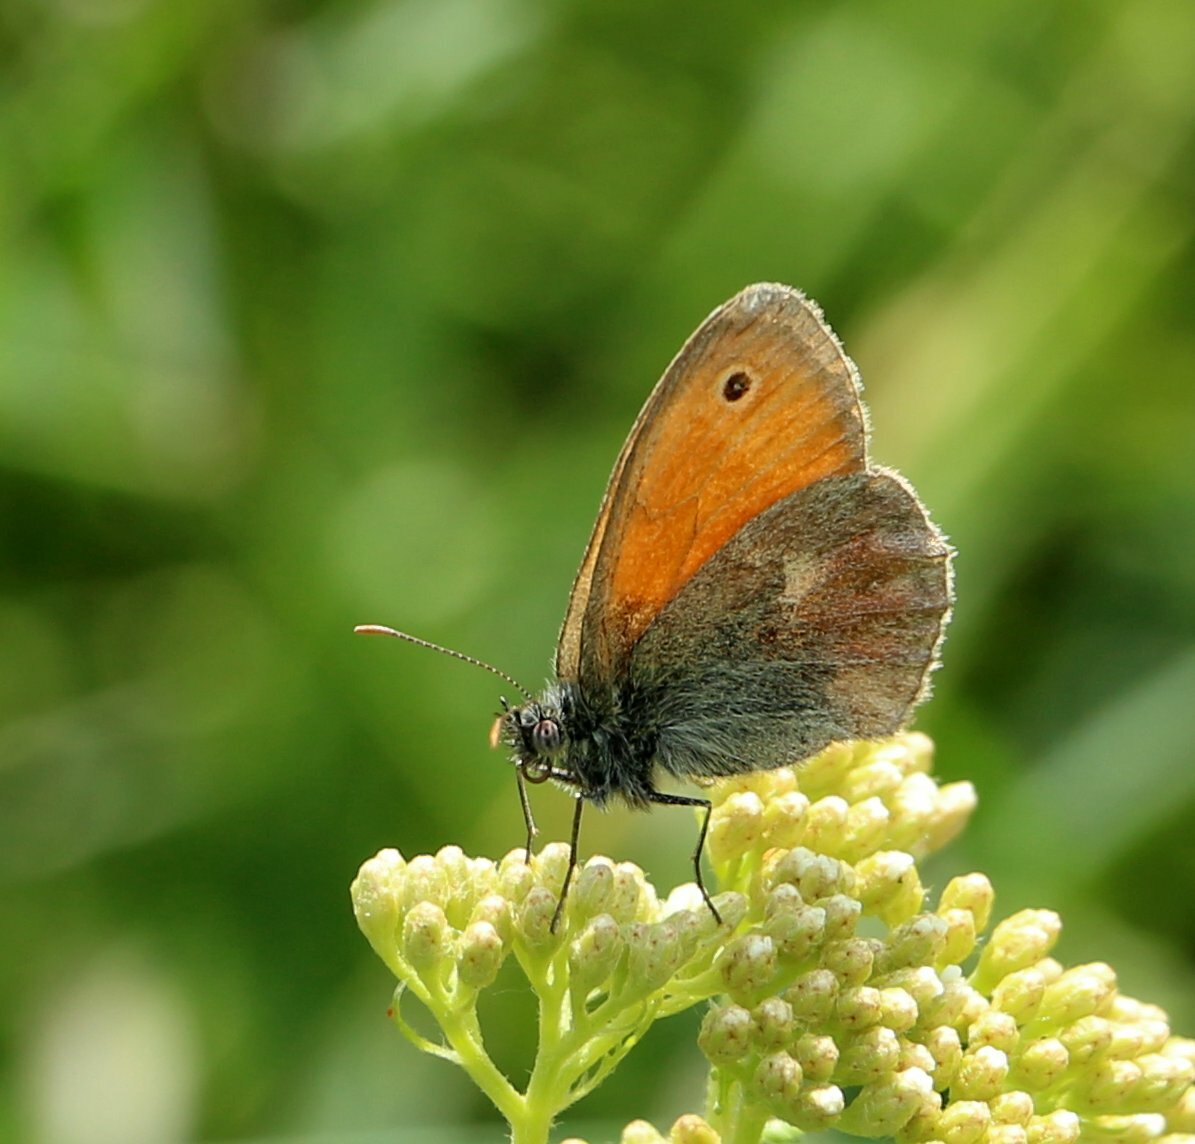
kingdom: Animalia
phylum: Arthropoda
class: Insecta
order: Lepidoptera
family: Nymphalidae
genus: Coenonympha
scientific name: Coenonympha pamphilus
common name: Small heath
